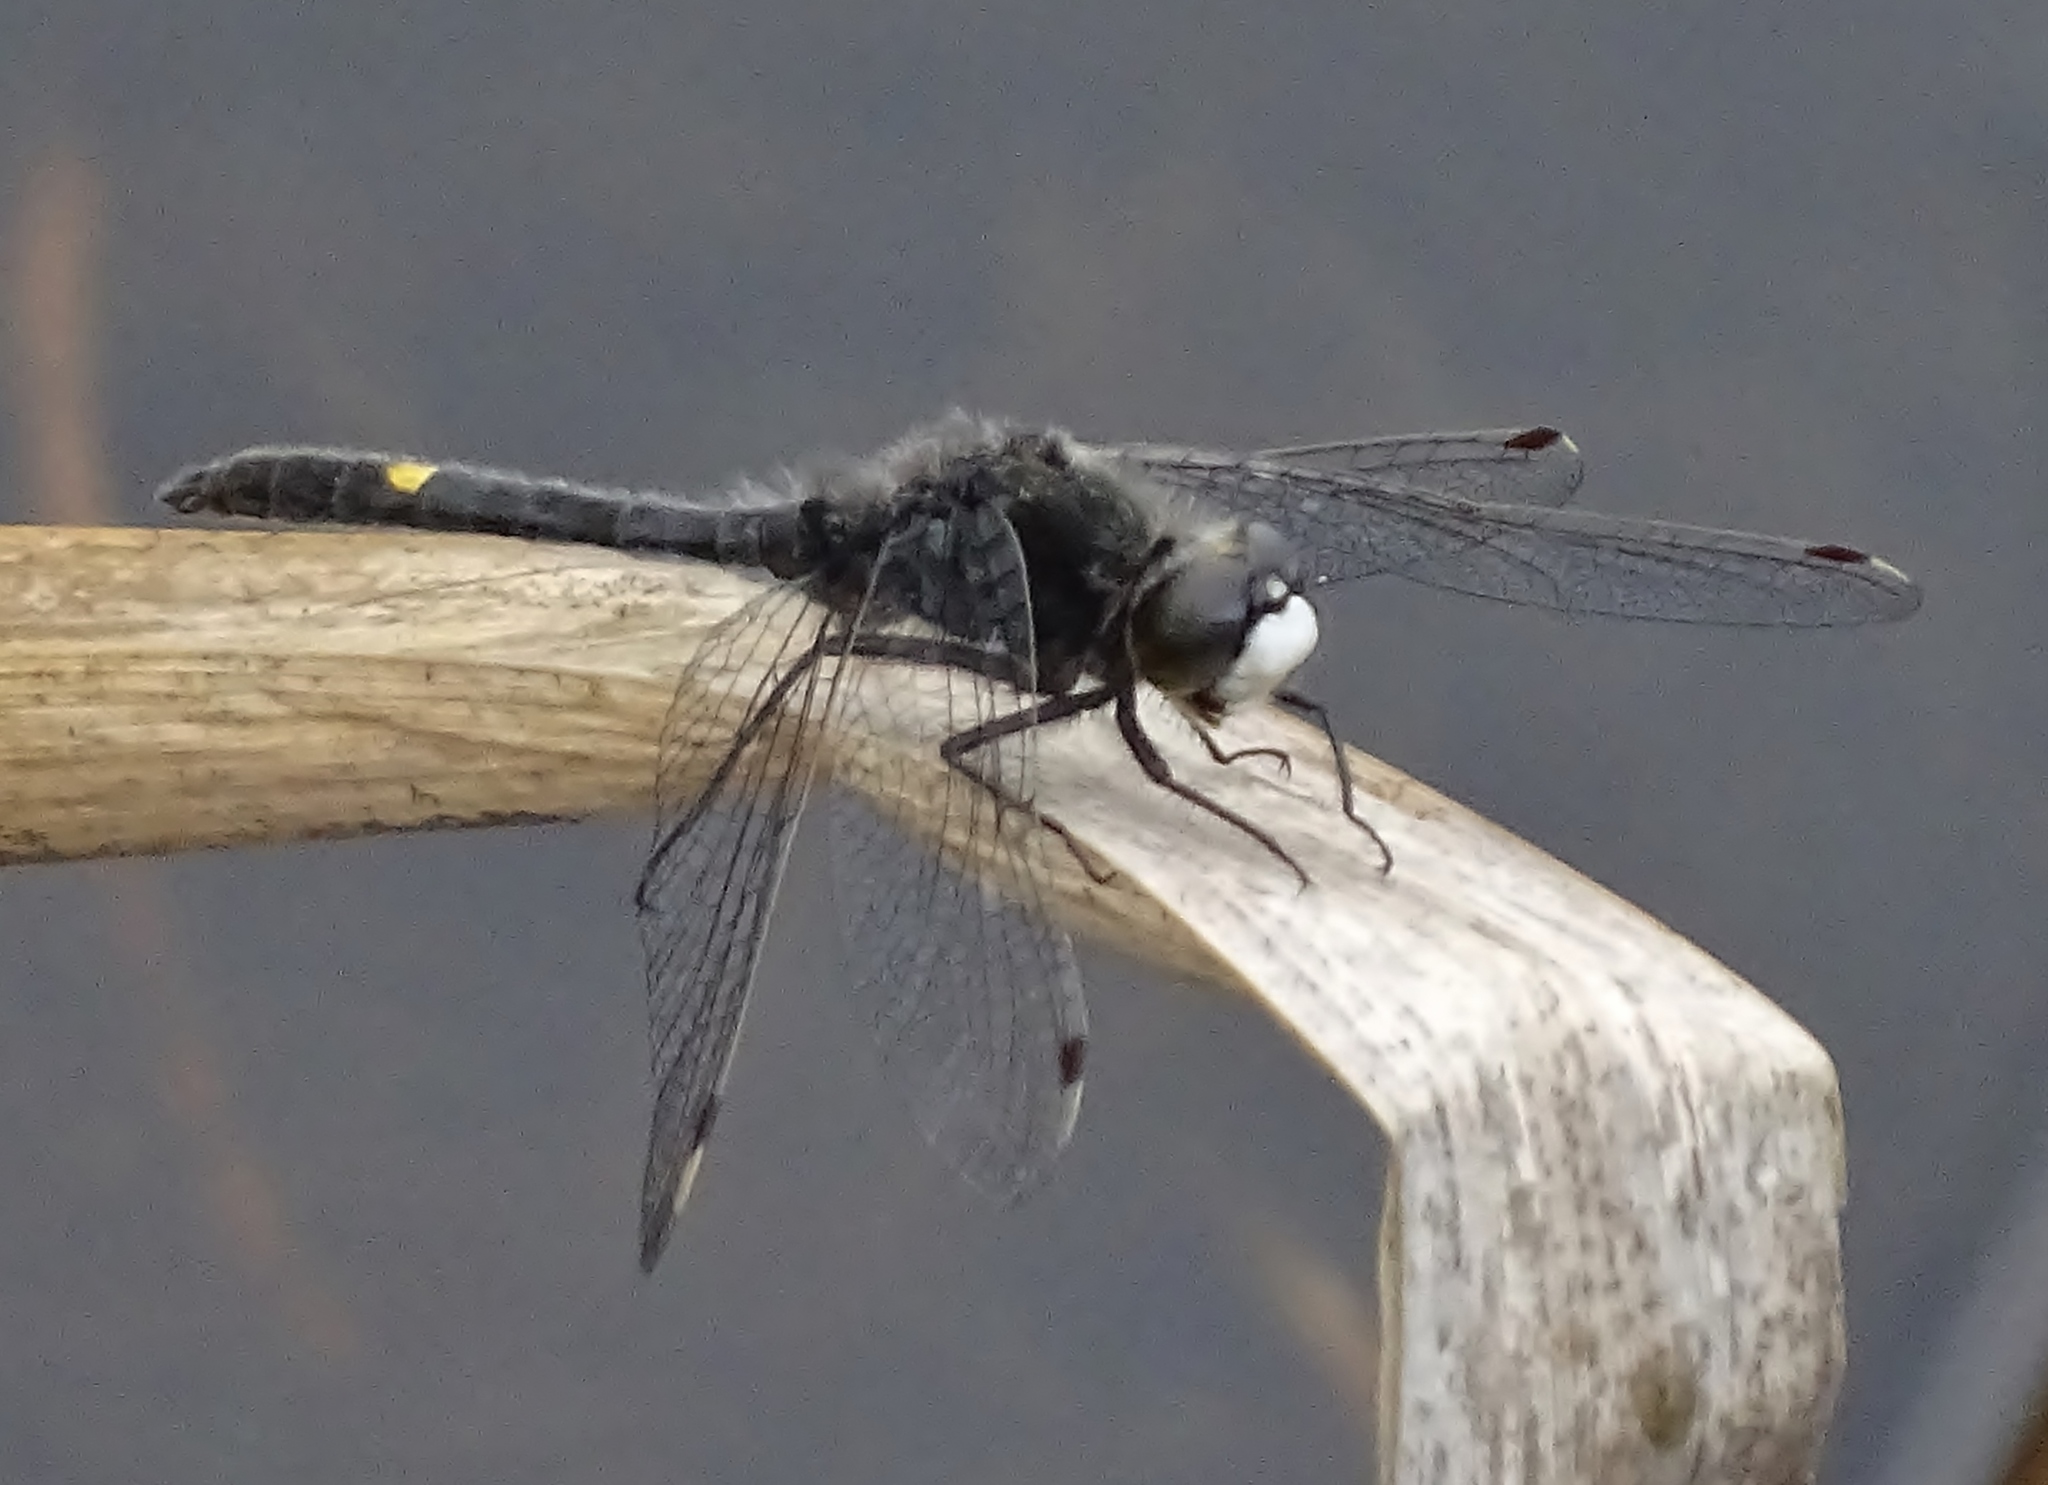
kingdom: Animalia
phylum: Arthropoda
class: Insecta
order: Odonata
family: Libellulidae
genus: Leucorrhinia
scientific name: Leucorrhinia intacta
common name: Dot-tailed whiteface
